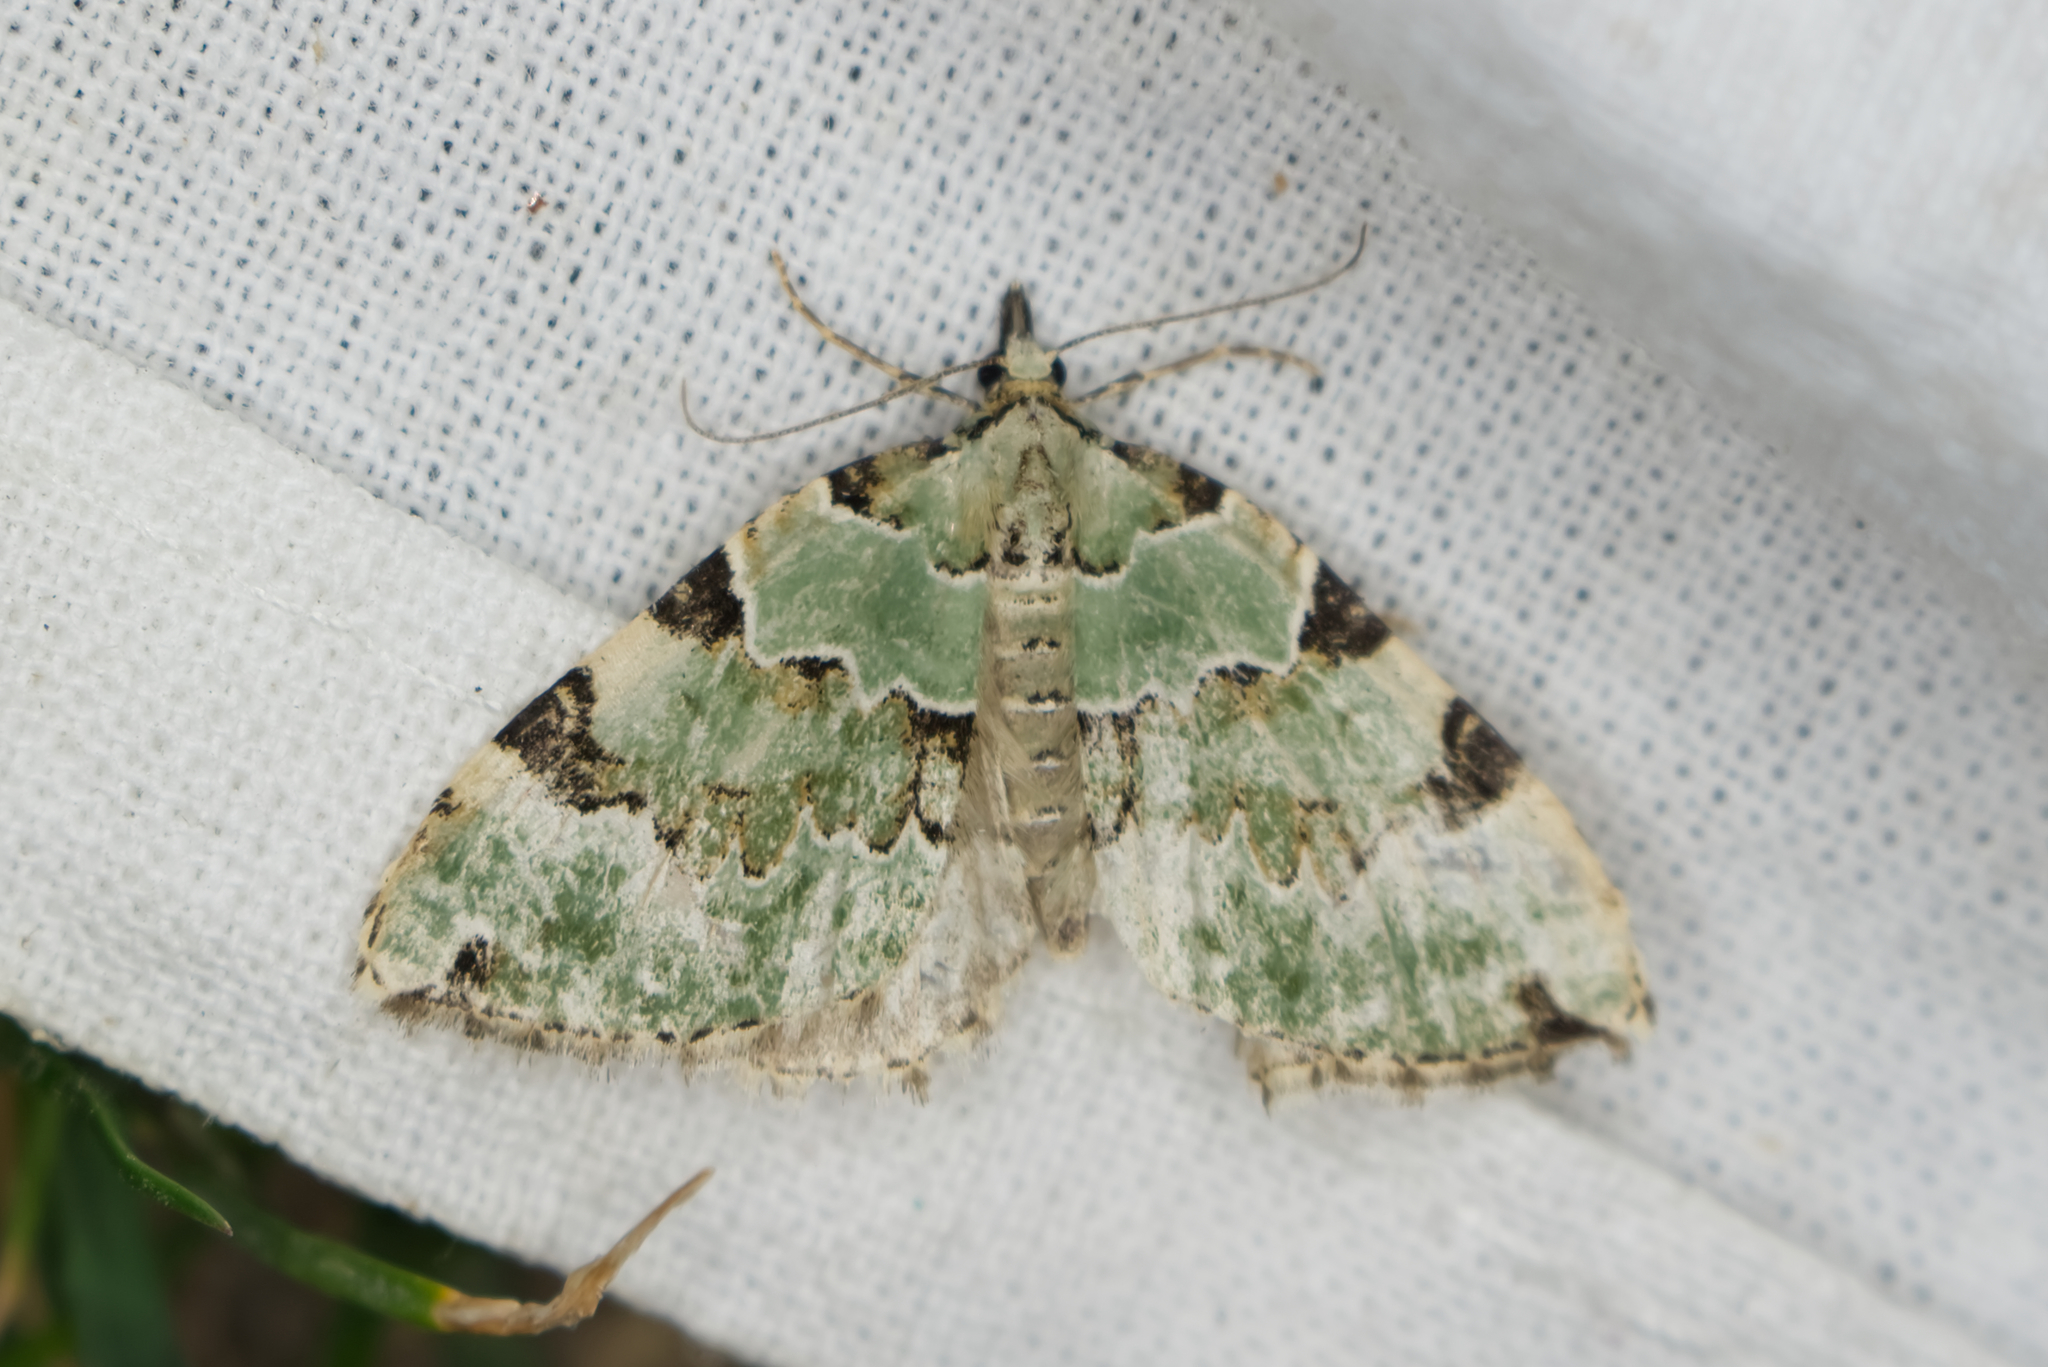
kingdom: Animalia
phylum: Arthropoda
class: Insecta
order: Lepidoptera
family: Geometridae
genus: Colostygia
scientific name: Colostygia pectinataria
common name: Green carpet
